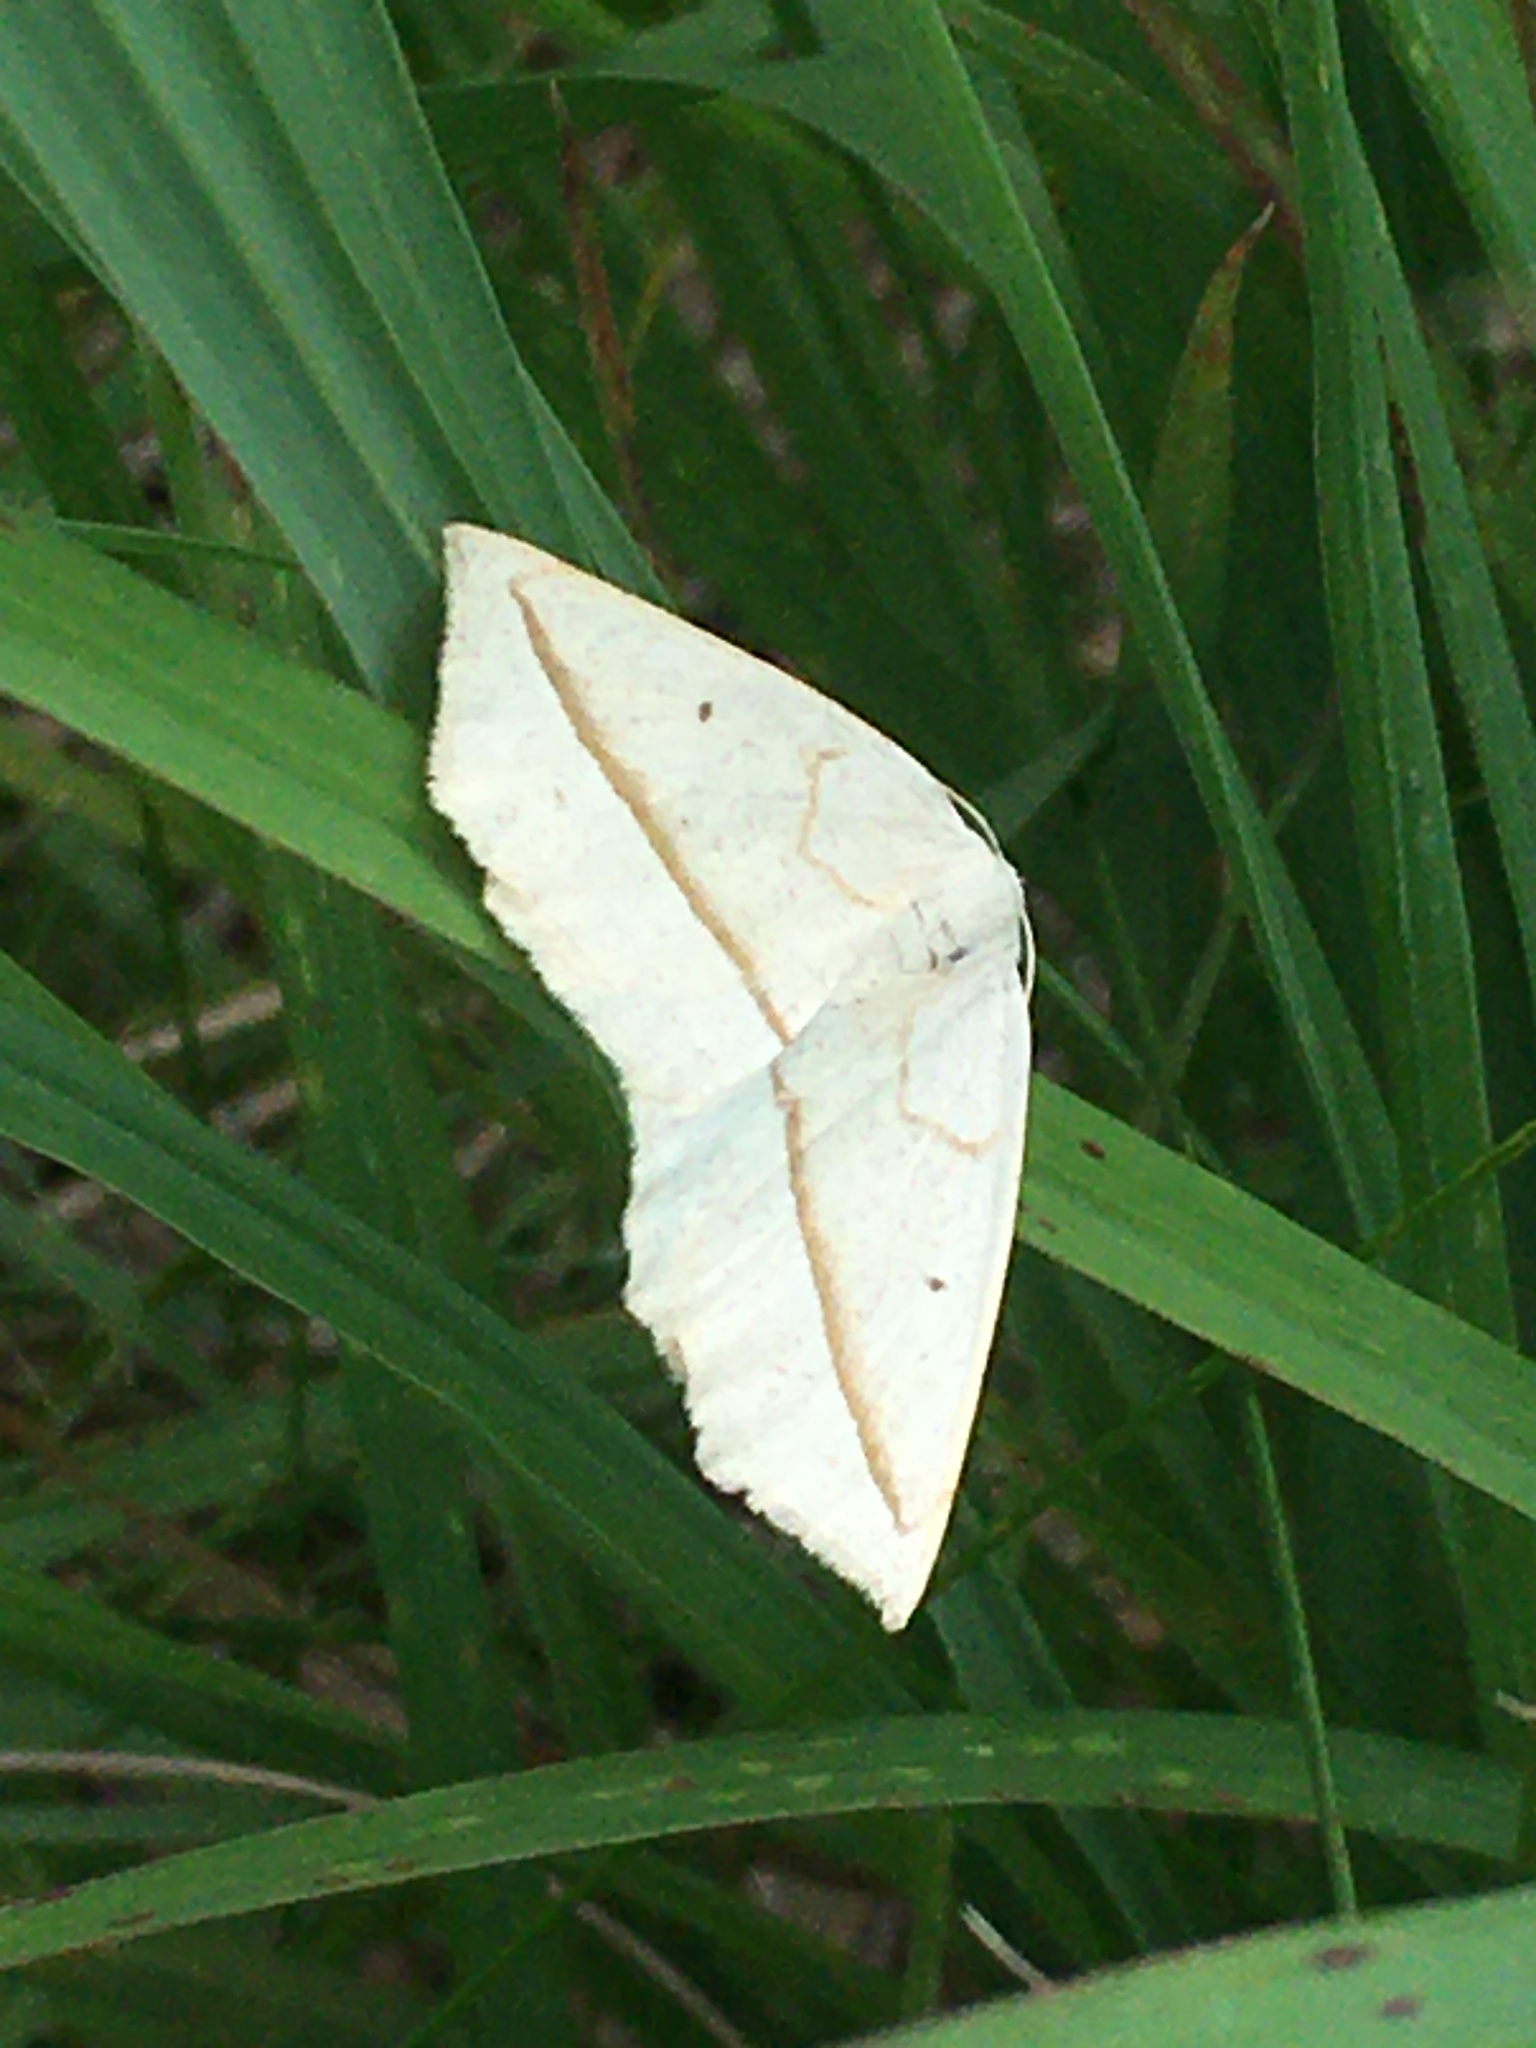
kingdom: Animalia
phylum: Arthropoda
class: Insecta
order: Lepidoptera
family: Geometridae
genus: Eusarca
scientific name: Eusarca confusaria
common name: Confused eusarca
